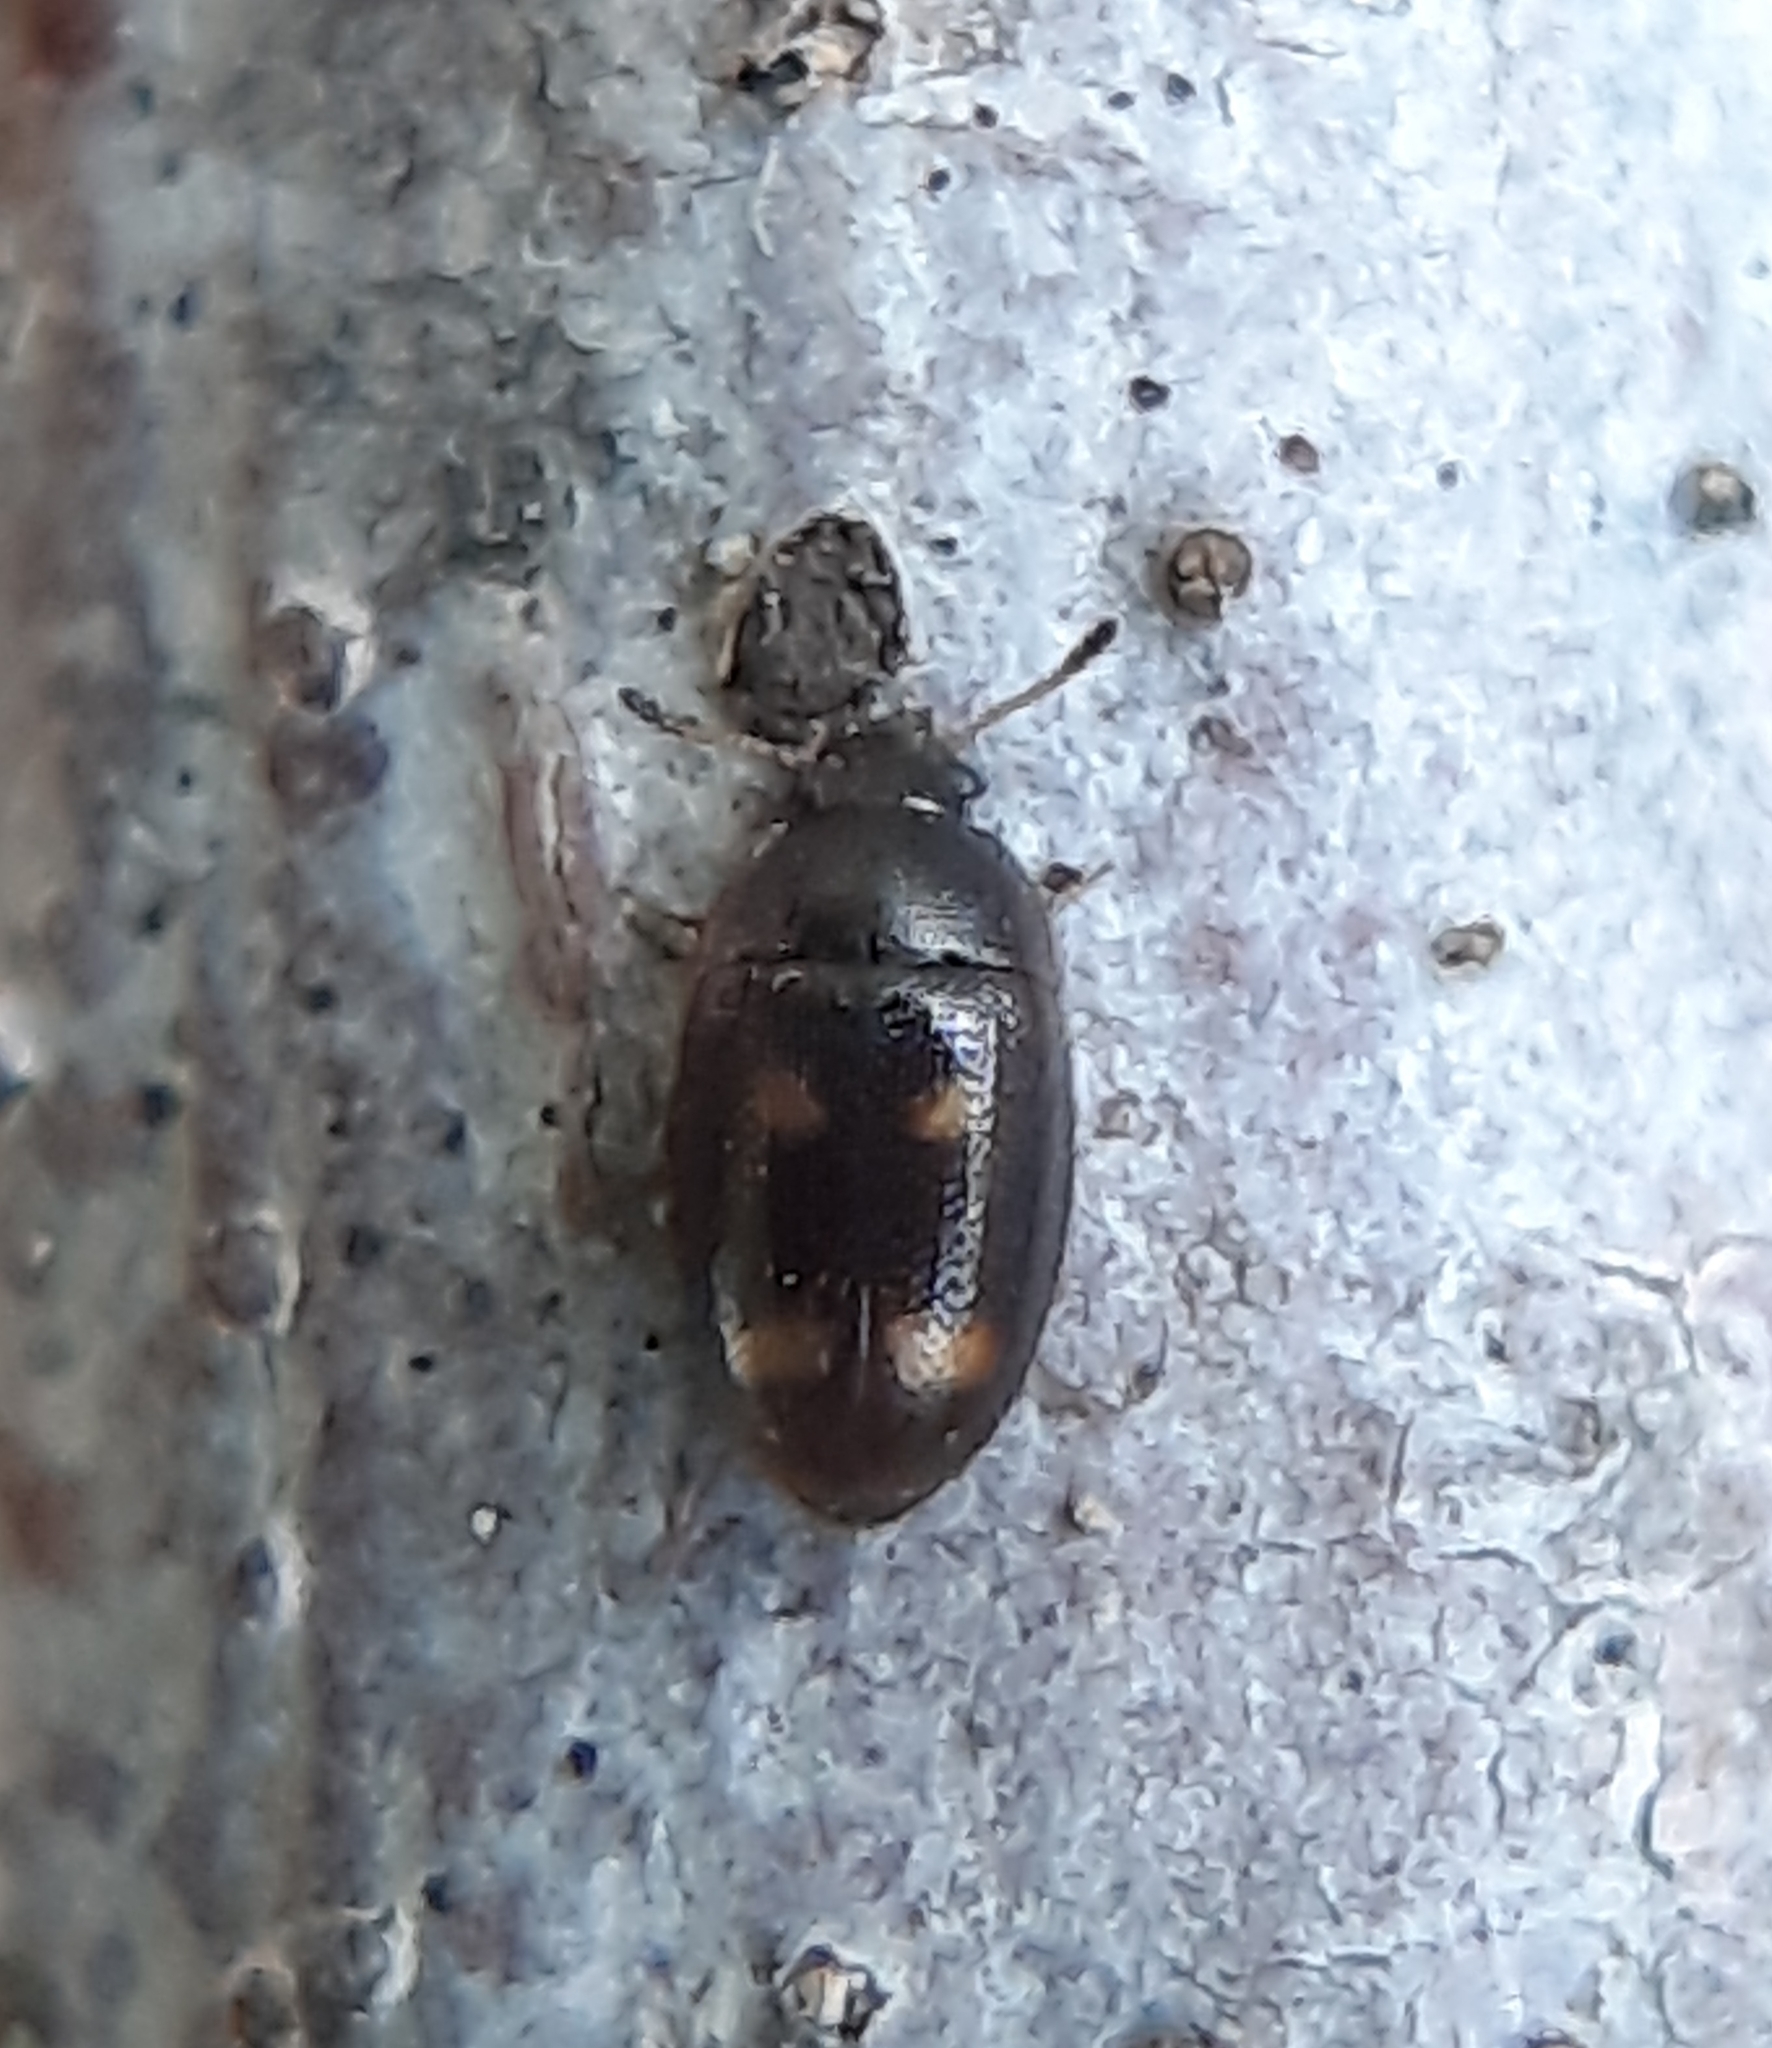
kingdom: Animalia
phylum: Arthropoda
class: Insecta
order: Coleoptera
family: Mycetophagidae
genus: Litargus
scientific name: Litargus tetraspilotus
